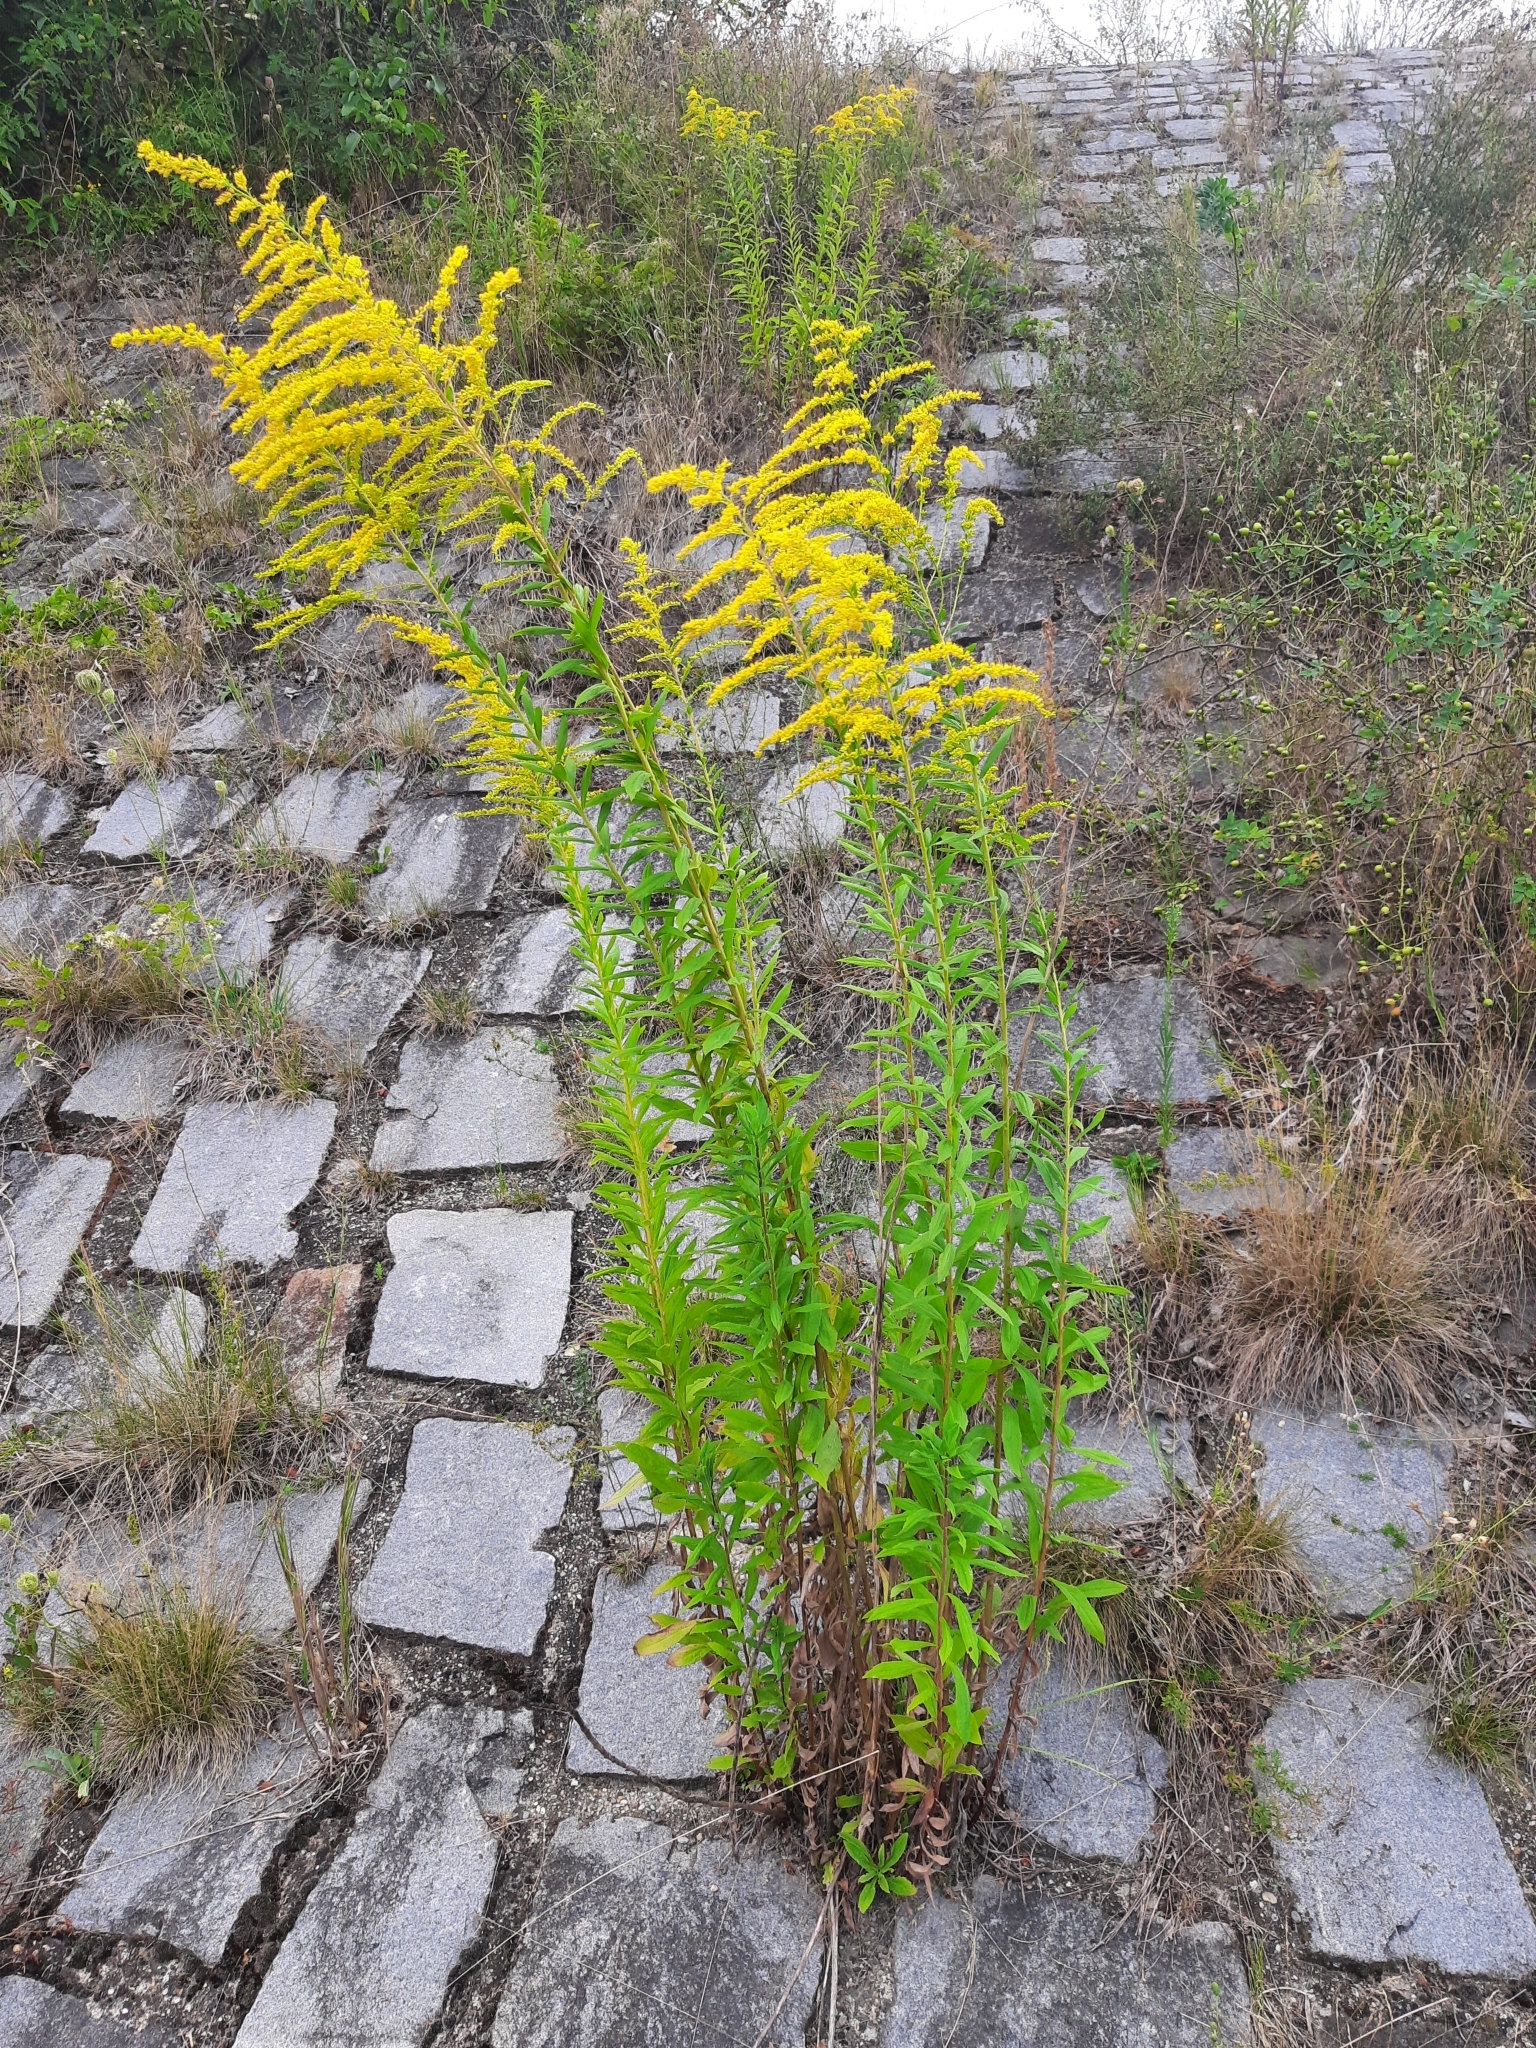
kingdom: Plantae
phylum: Tracheophyta
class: Magnoliopsida
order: Asterales
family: Asteraceae
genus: Solidago
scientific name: Solidago canadensis
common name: Canada goldenrod
